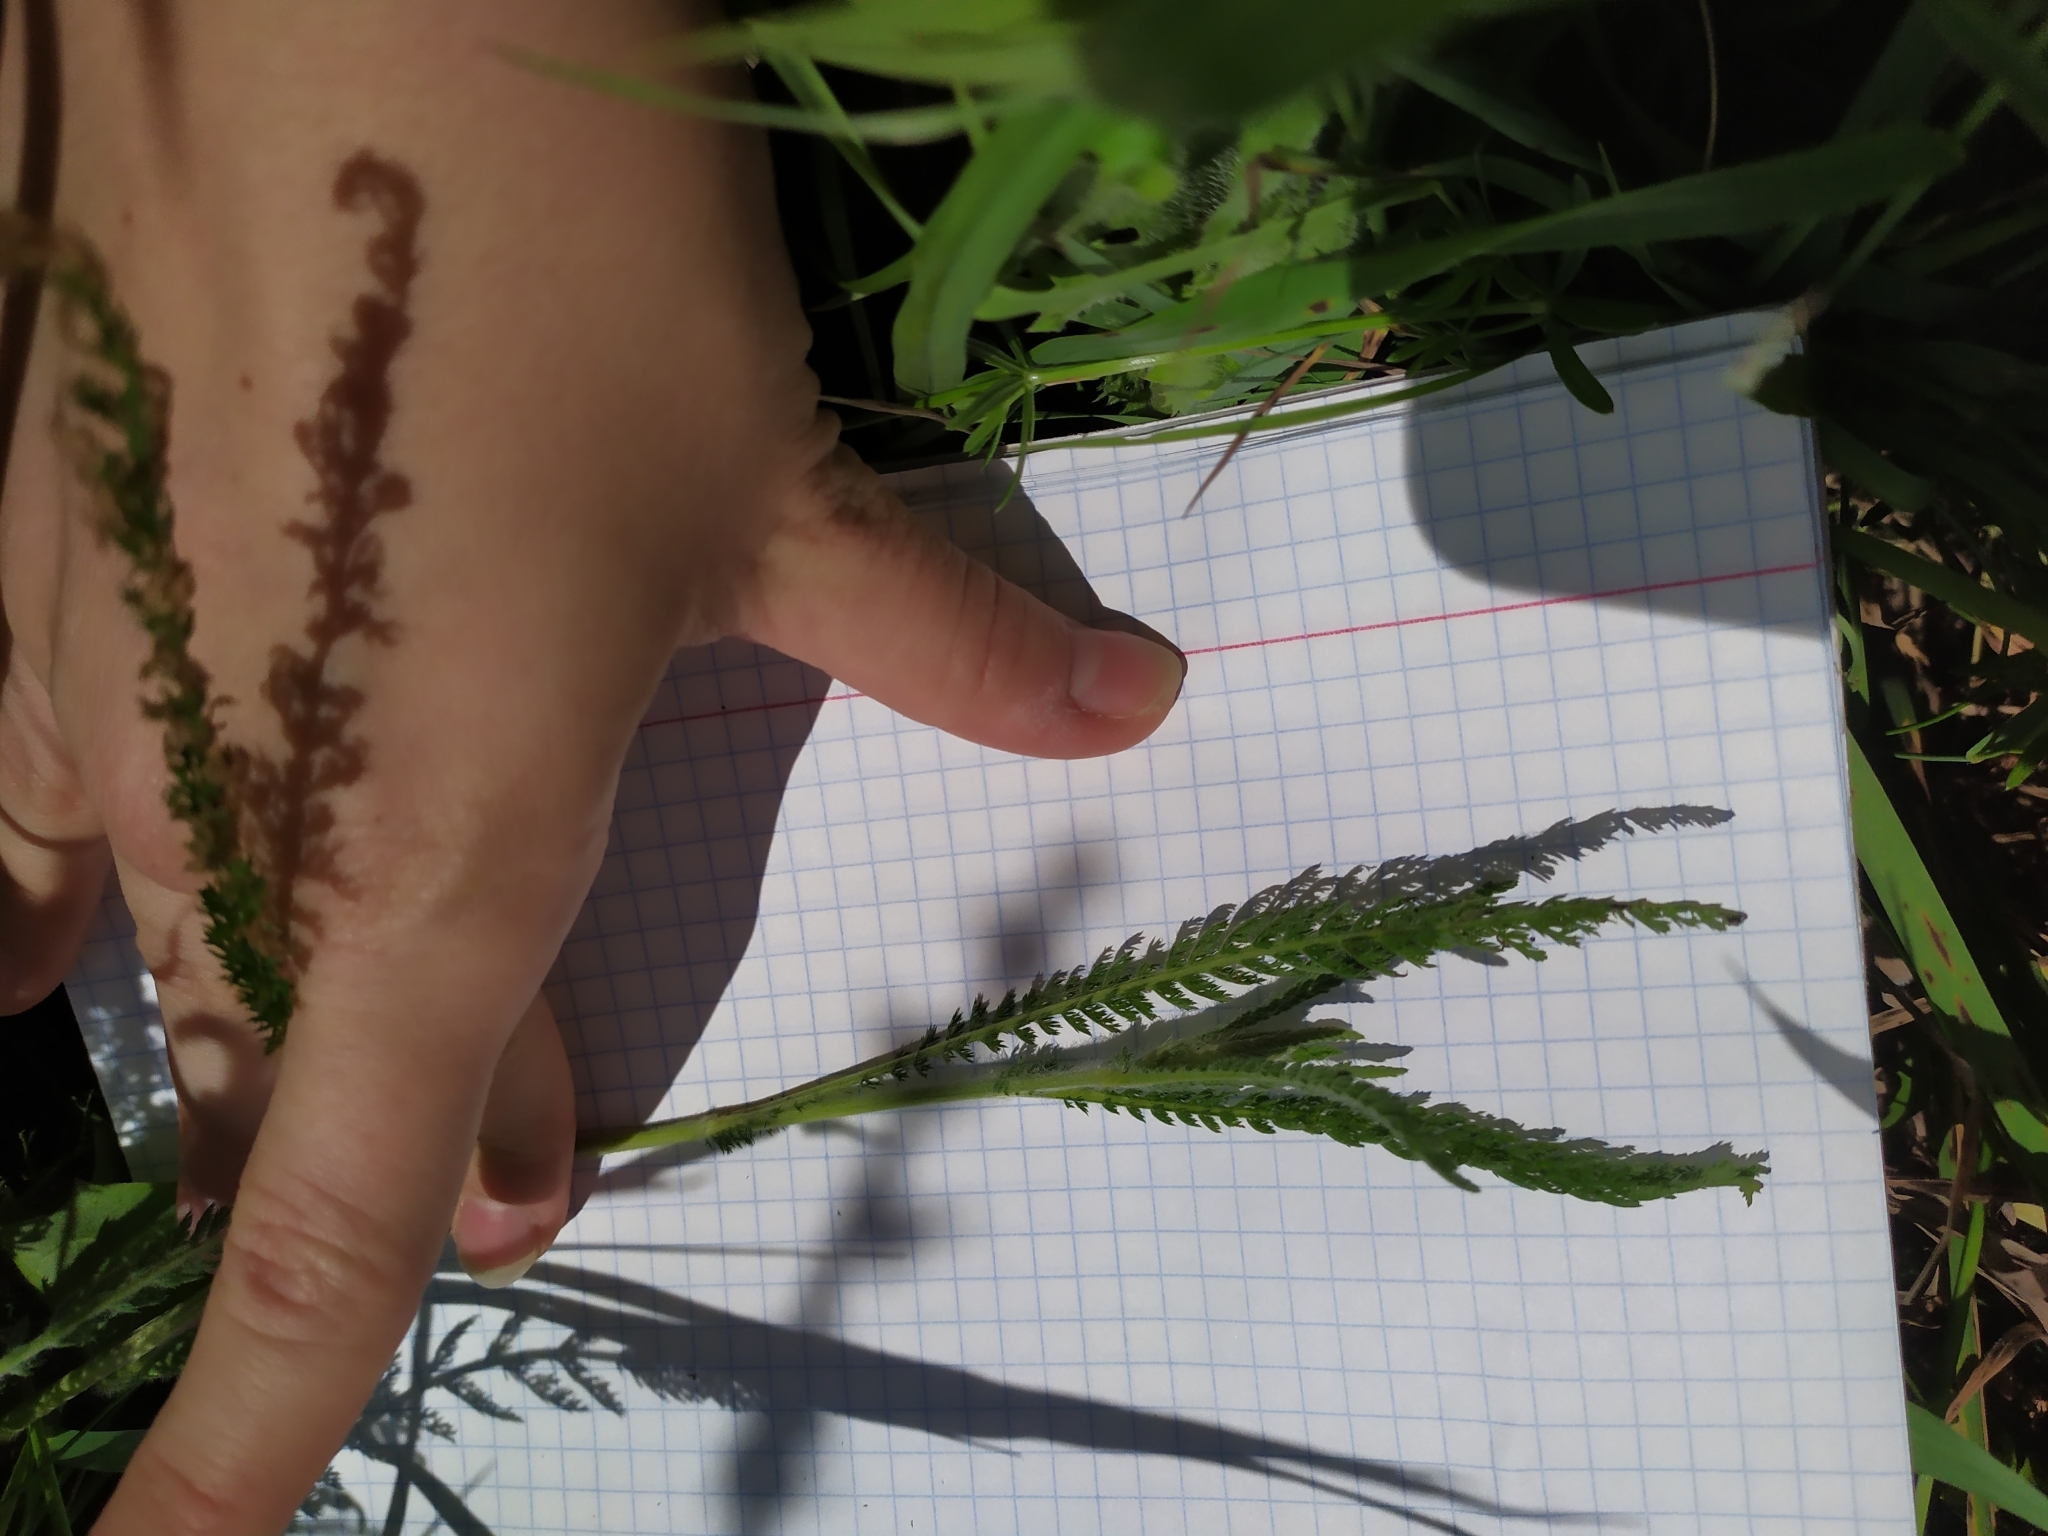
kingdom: Plantae
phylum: Tracheophyta
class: Magnoliopsida
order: Asterales
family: Asteraceae
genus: Achillea
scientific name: Achillea millefolium
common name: Yarrow
